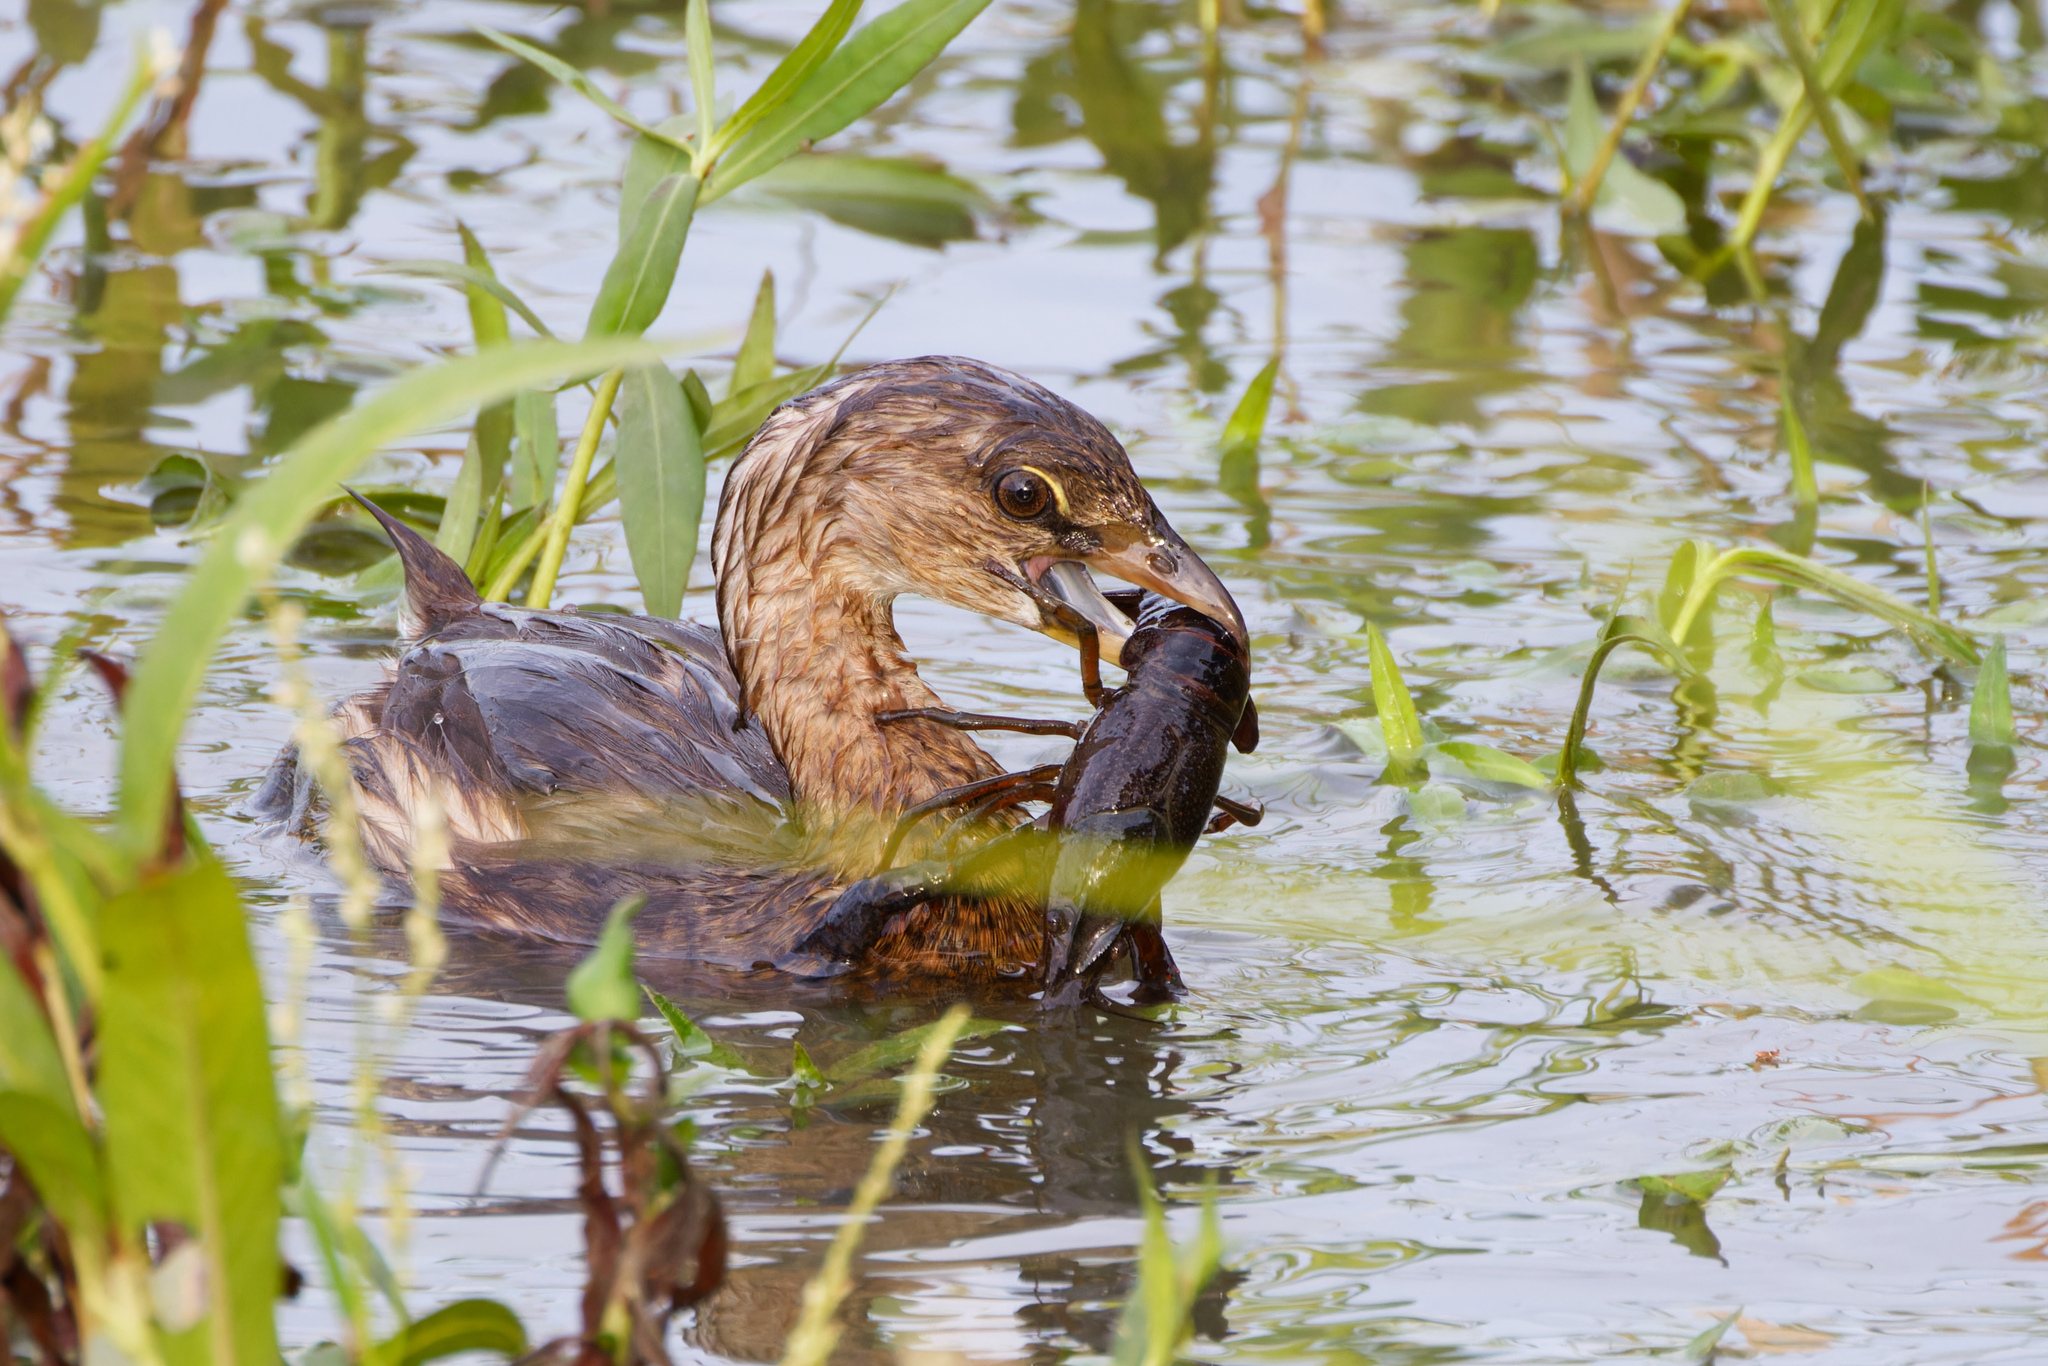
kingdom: Animalia
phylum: Chordata
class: Aves
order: Podicipediformes
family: Podicipedidae
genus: Podilymbus
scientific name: Podilymbus podiceps
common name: Pied-billed grebe
